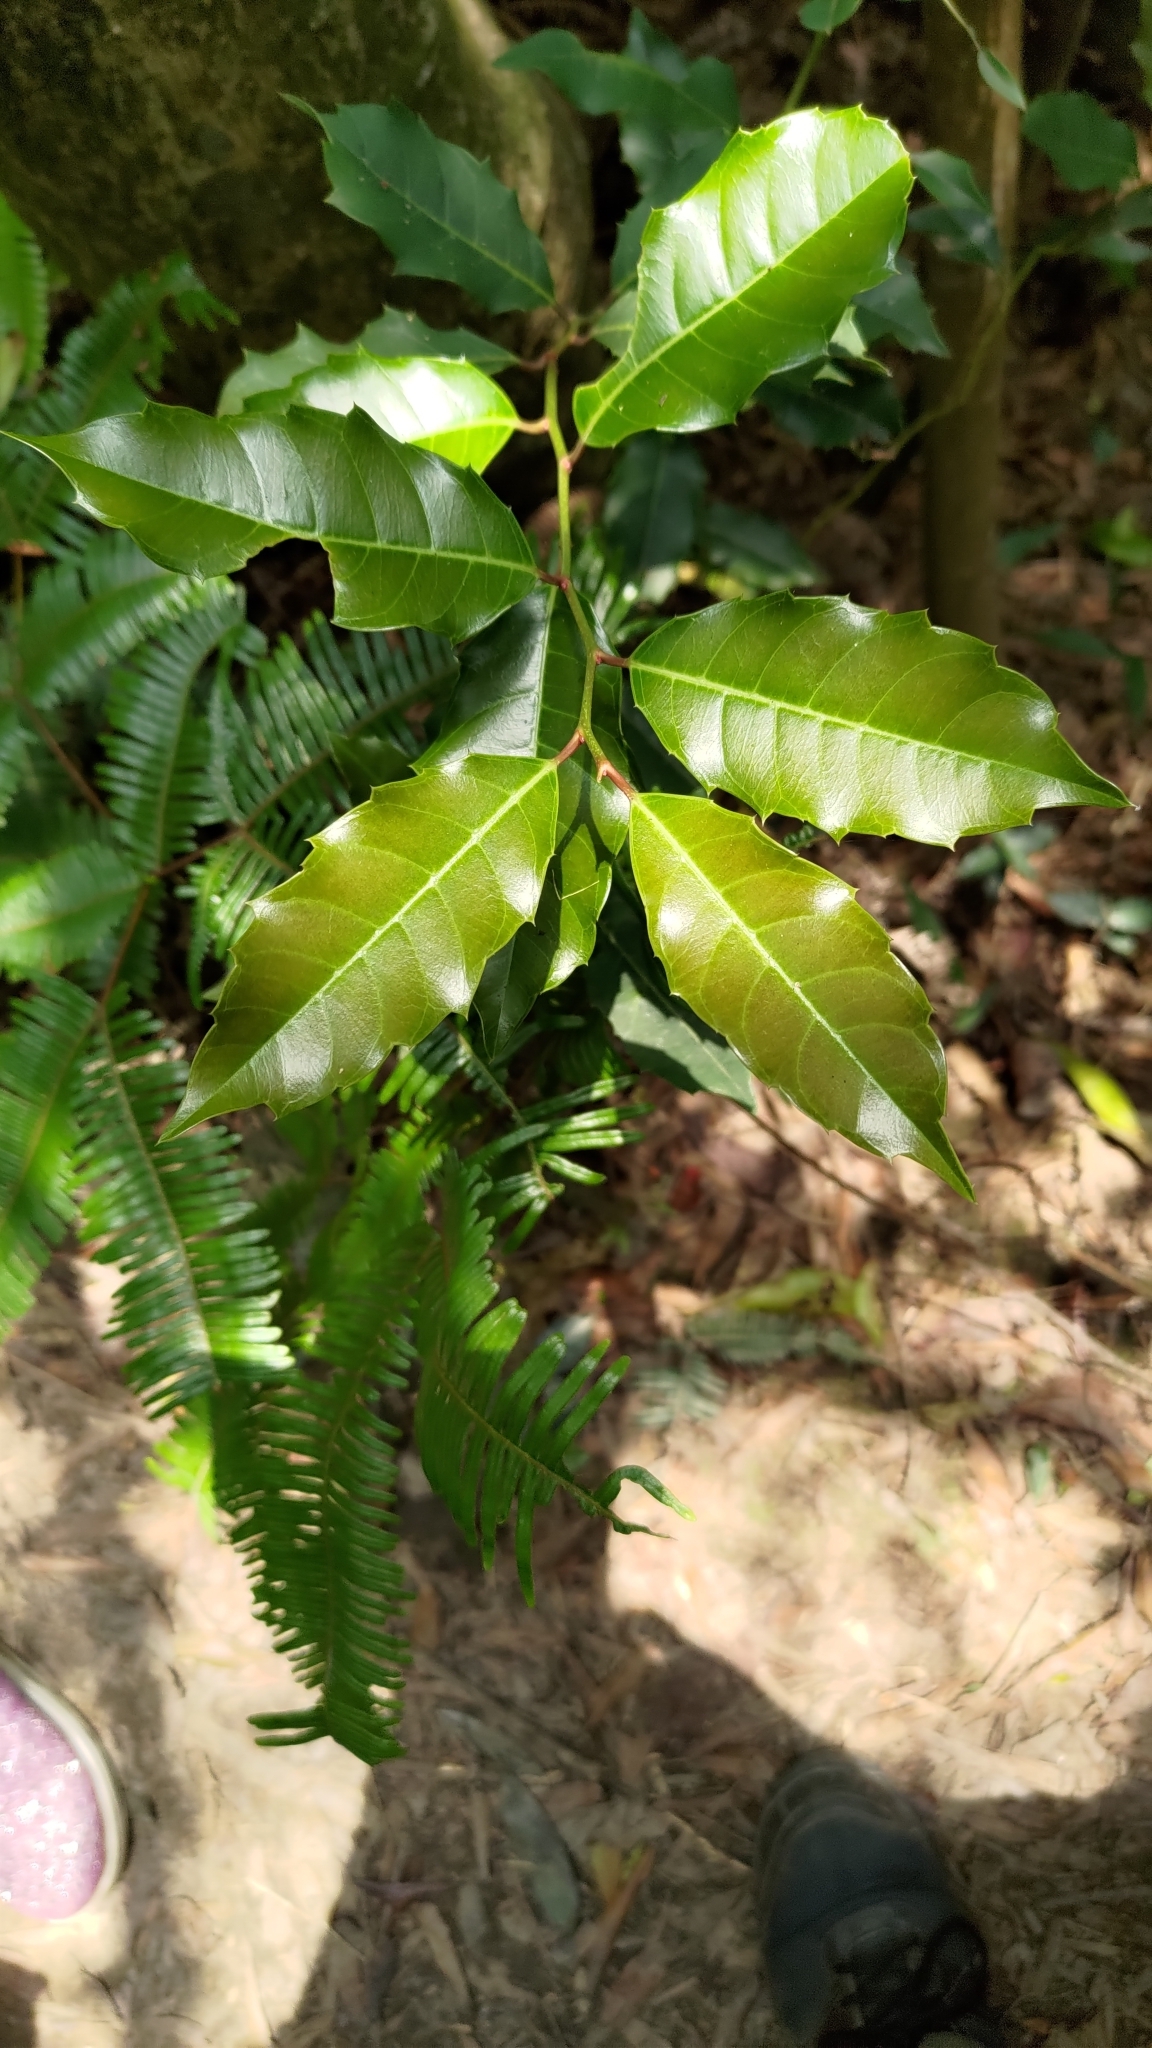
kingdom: Plantae
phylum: Tracheophyta
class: Magnoliopsida
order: Saxifragales
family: Iteaceae
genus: Itea
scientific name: Itea oldhamii
